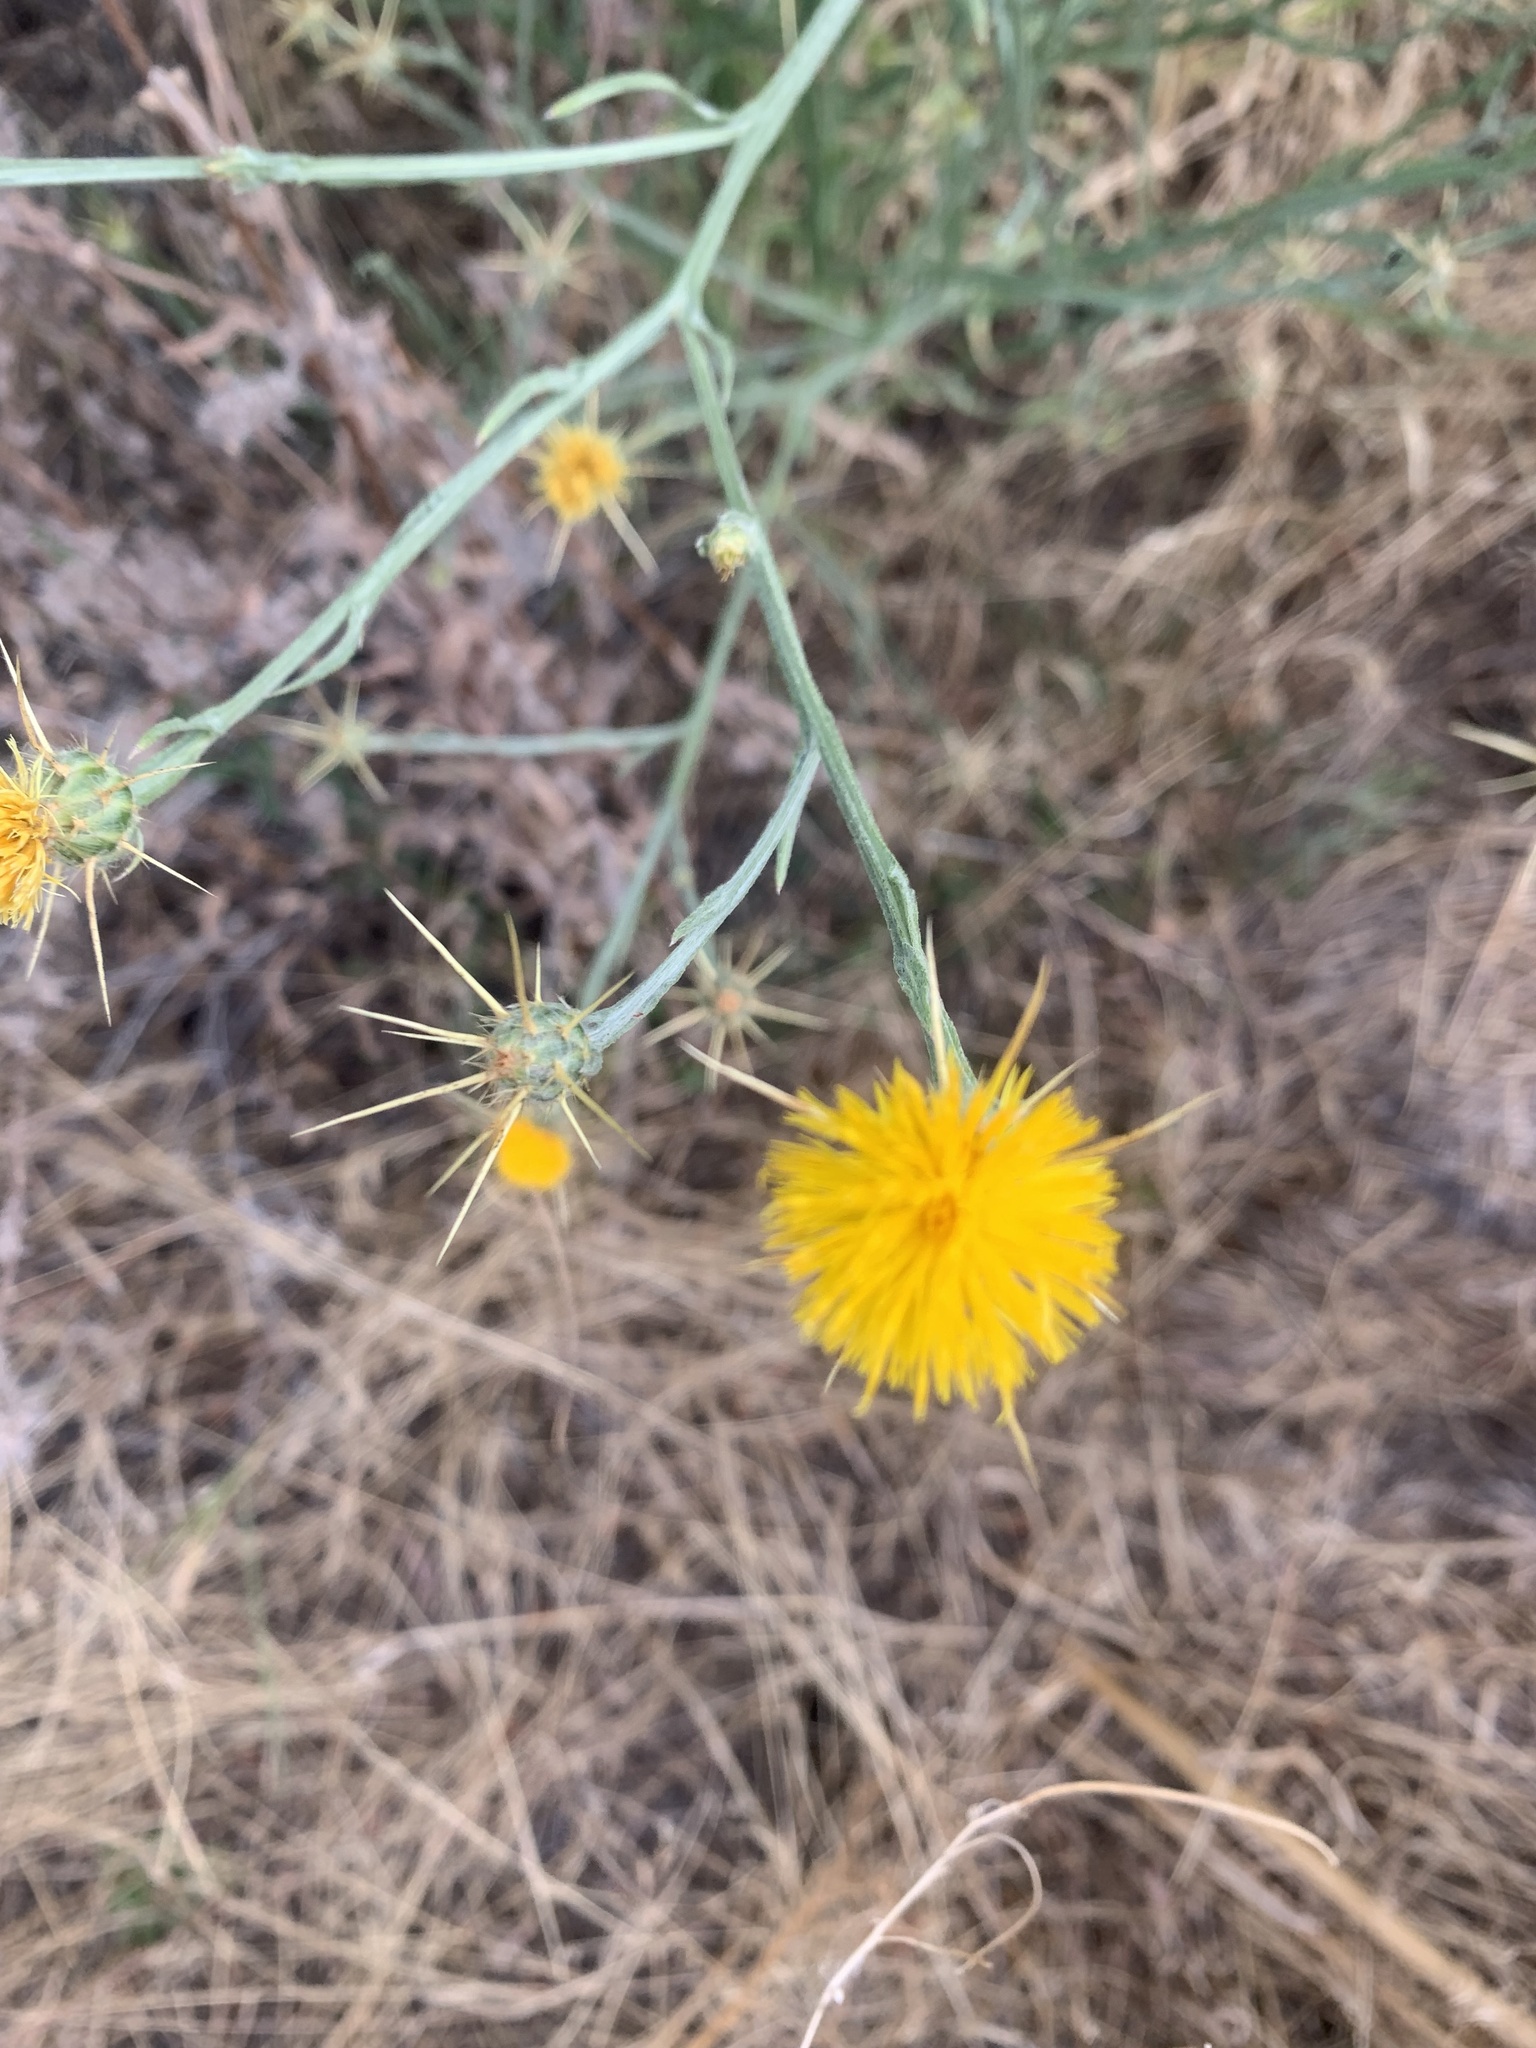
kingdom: Plantae
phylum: Tracheophyta
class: Magnoliopsida
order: Asterales
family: Asteraceae
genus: Centaurea
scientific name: Centaurea solstitialis
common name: Yellow star-thistle
